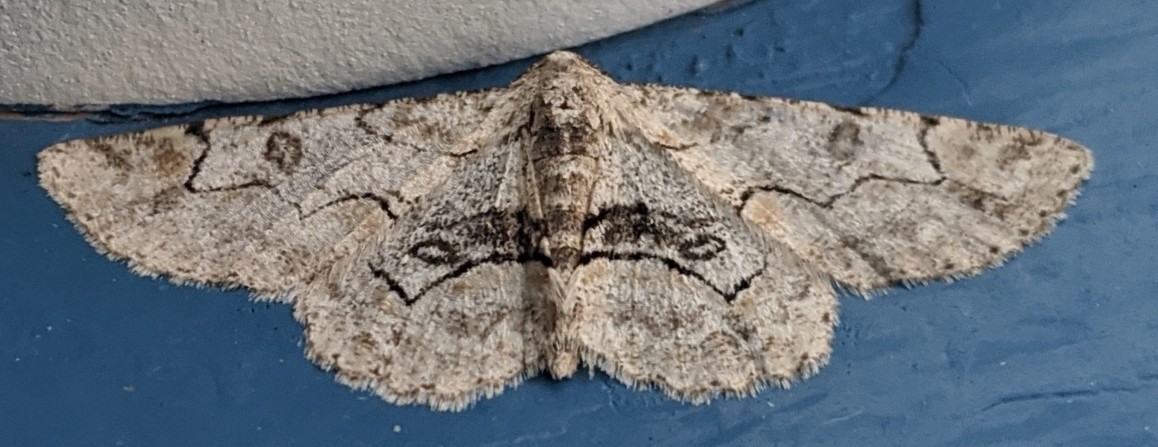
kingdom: Animalia
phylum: Arthropoda
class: Insecta
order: Lepidoptera
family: Geometridae
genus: Iridopsis
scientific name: Iridopsis larvaria
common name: Bent-line gray
